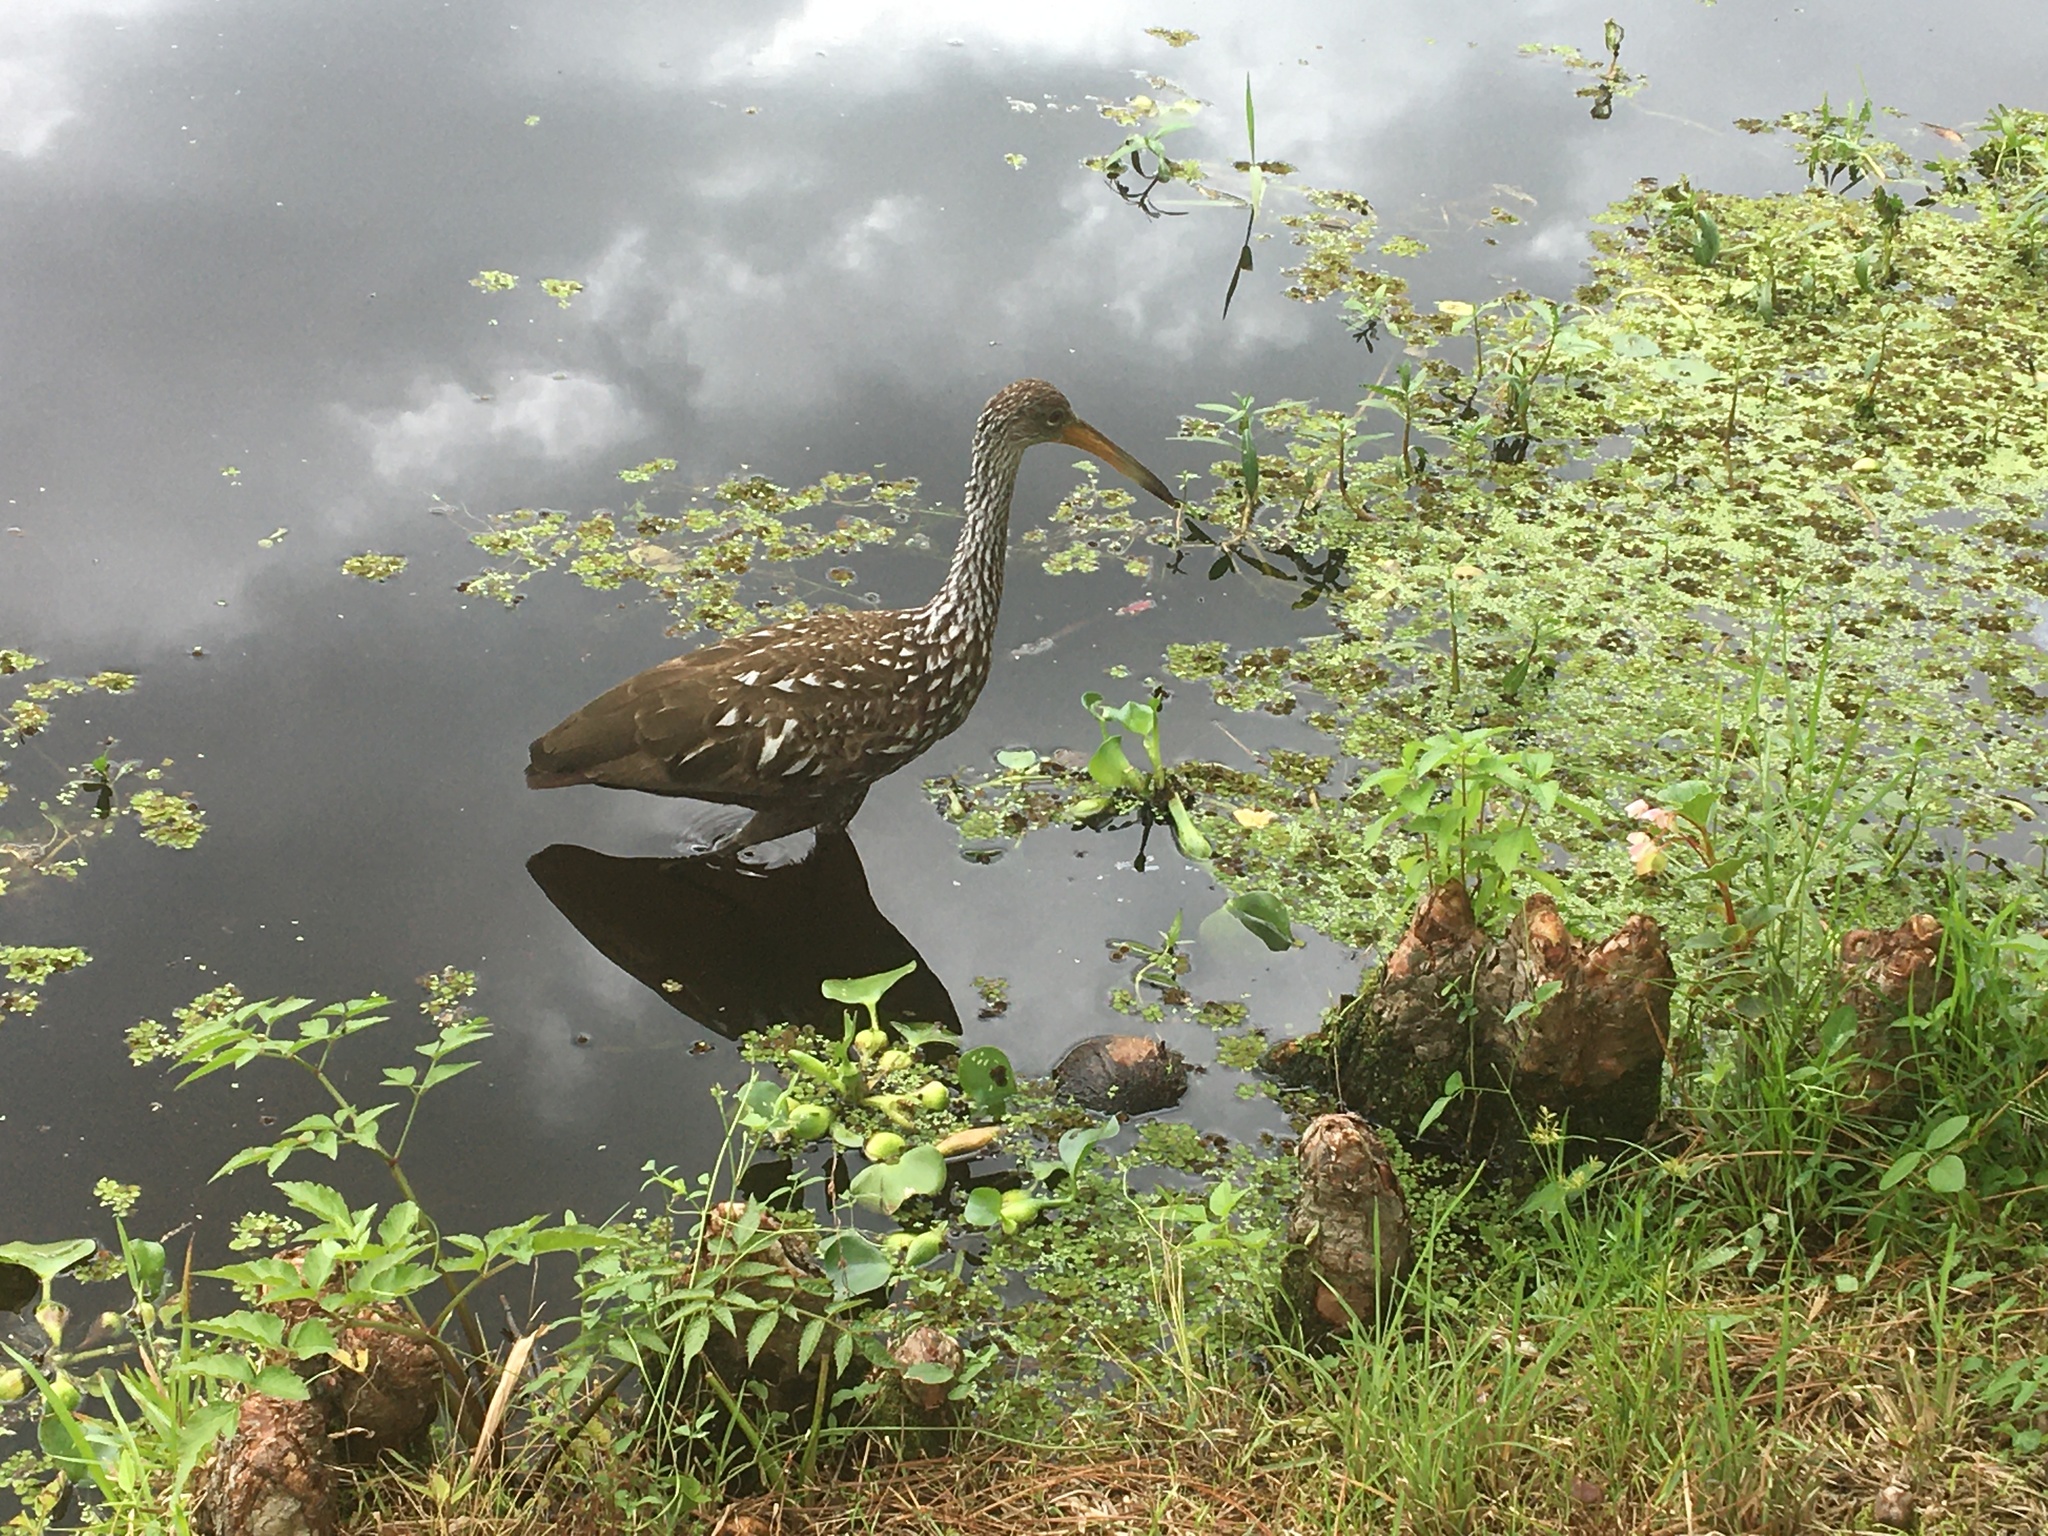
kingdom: Animalia
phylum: Chordata
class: Aves
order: Gruiformes
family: Aramidae
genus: Aramus
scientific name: Aramus guarauna
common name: Limpkin
